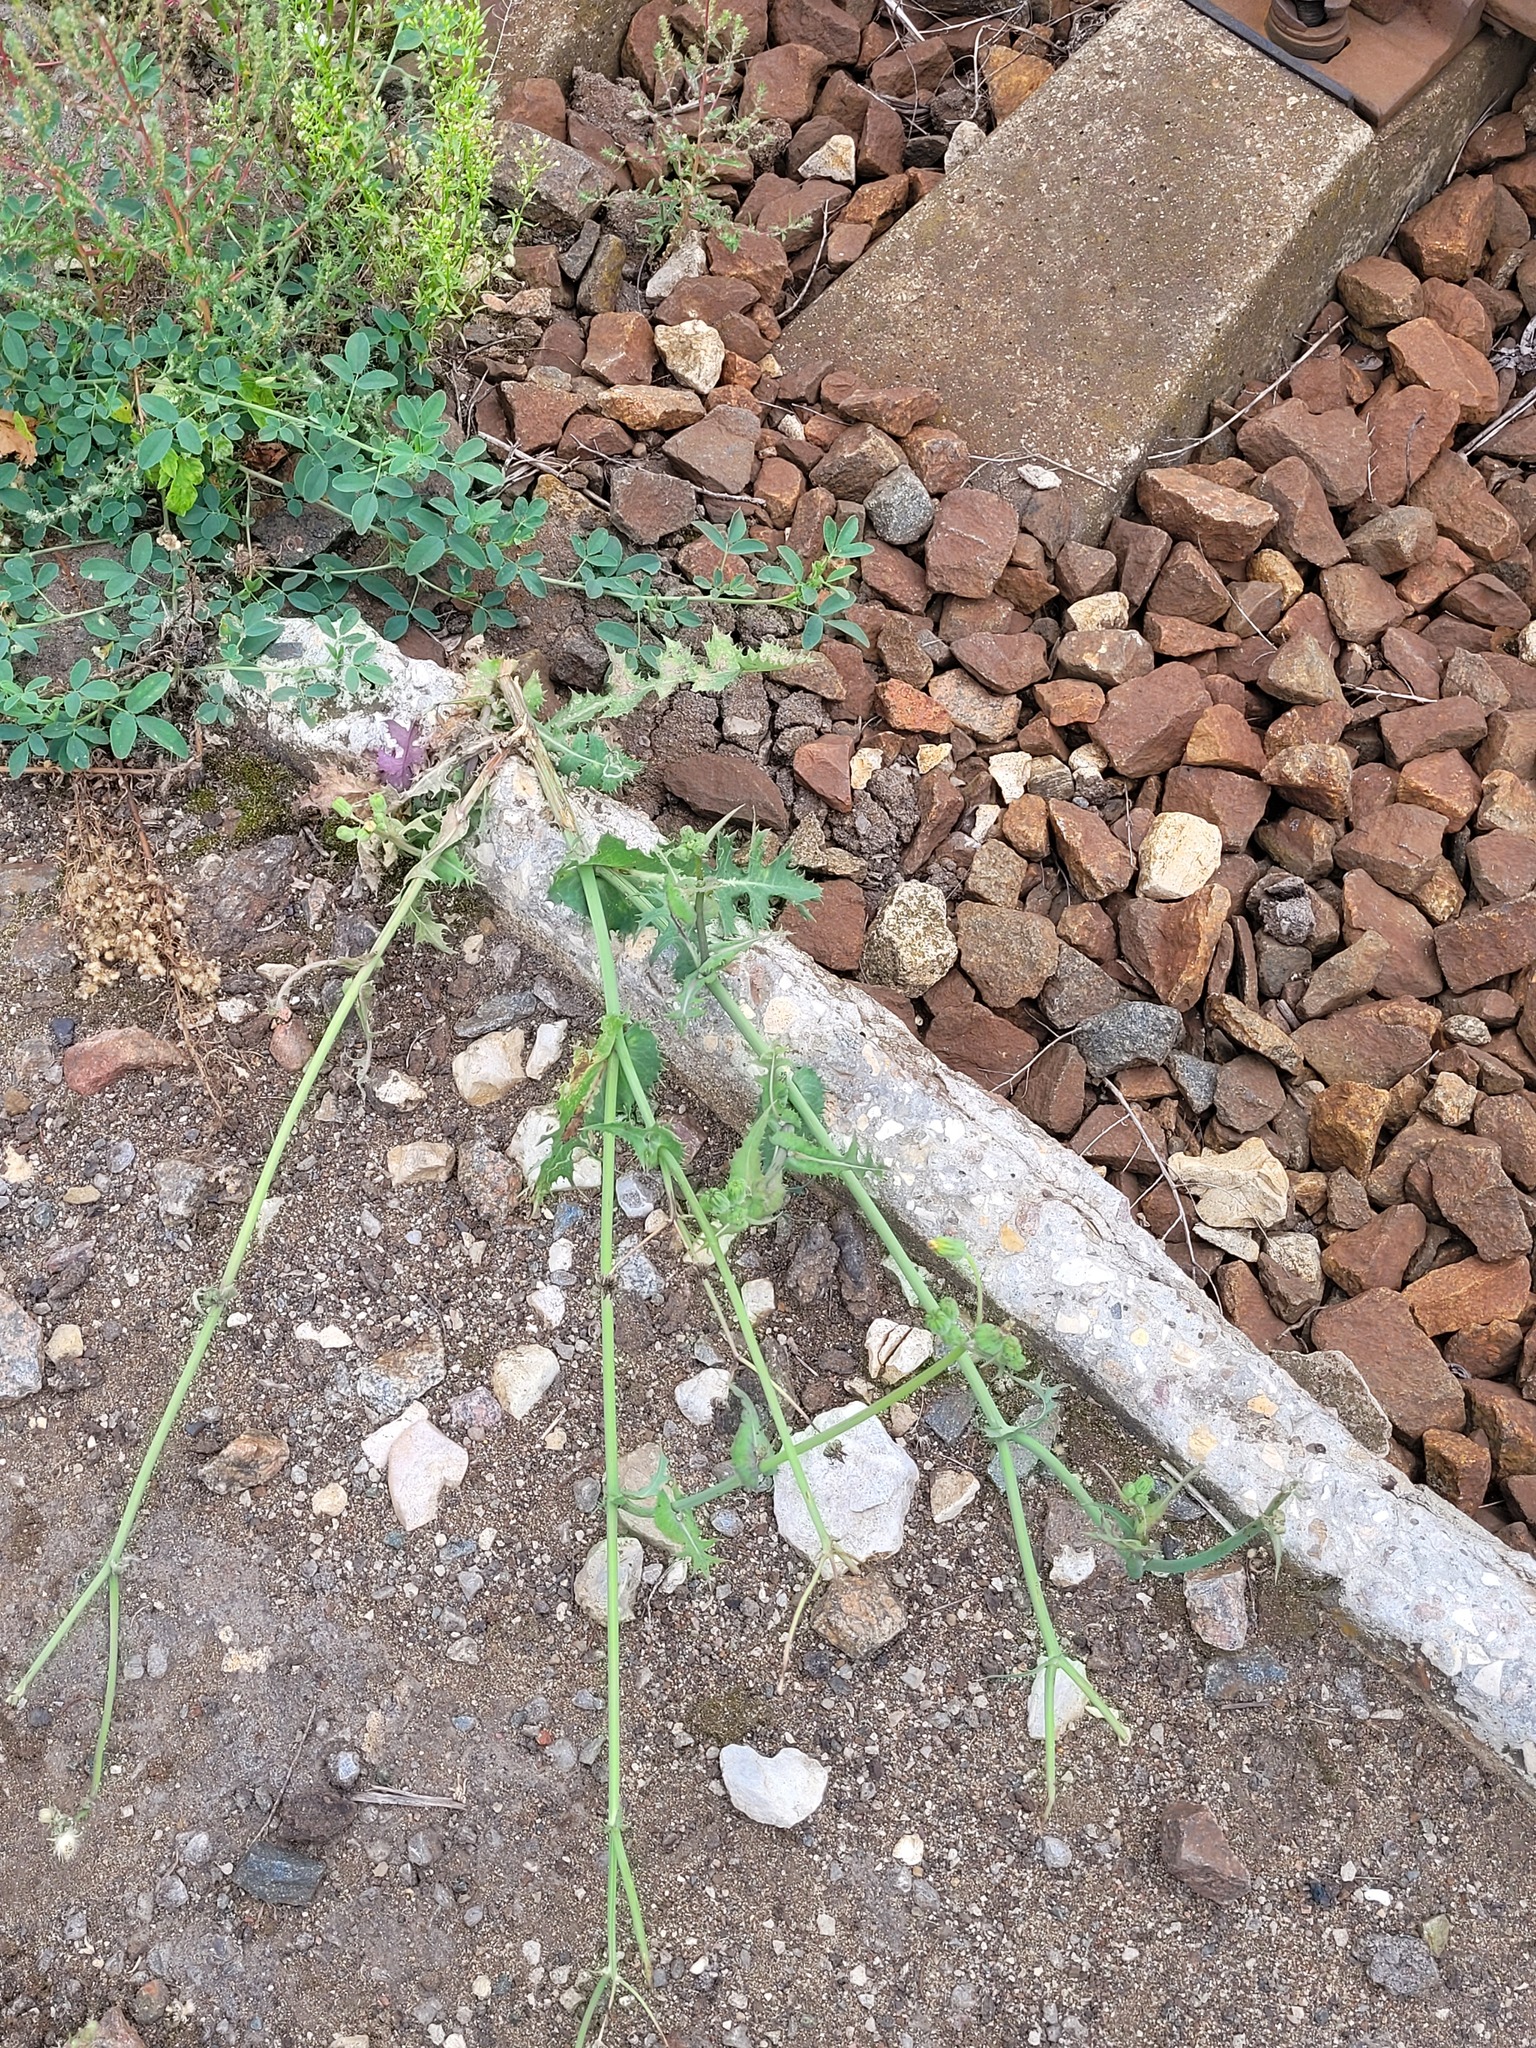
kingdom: Plantae
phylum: Tracheophyta
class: Magnoliopsida
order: Asterales
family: Asteraceae
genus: Sonchus
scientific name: Sonchus oleraceus
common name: Common sowthistle
